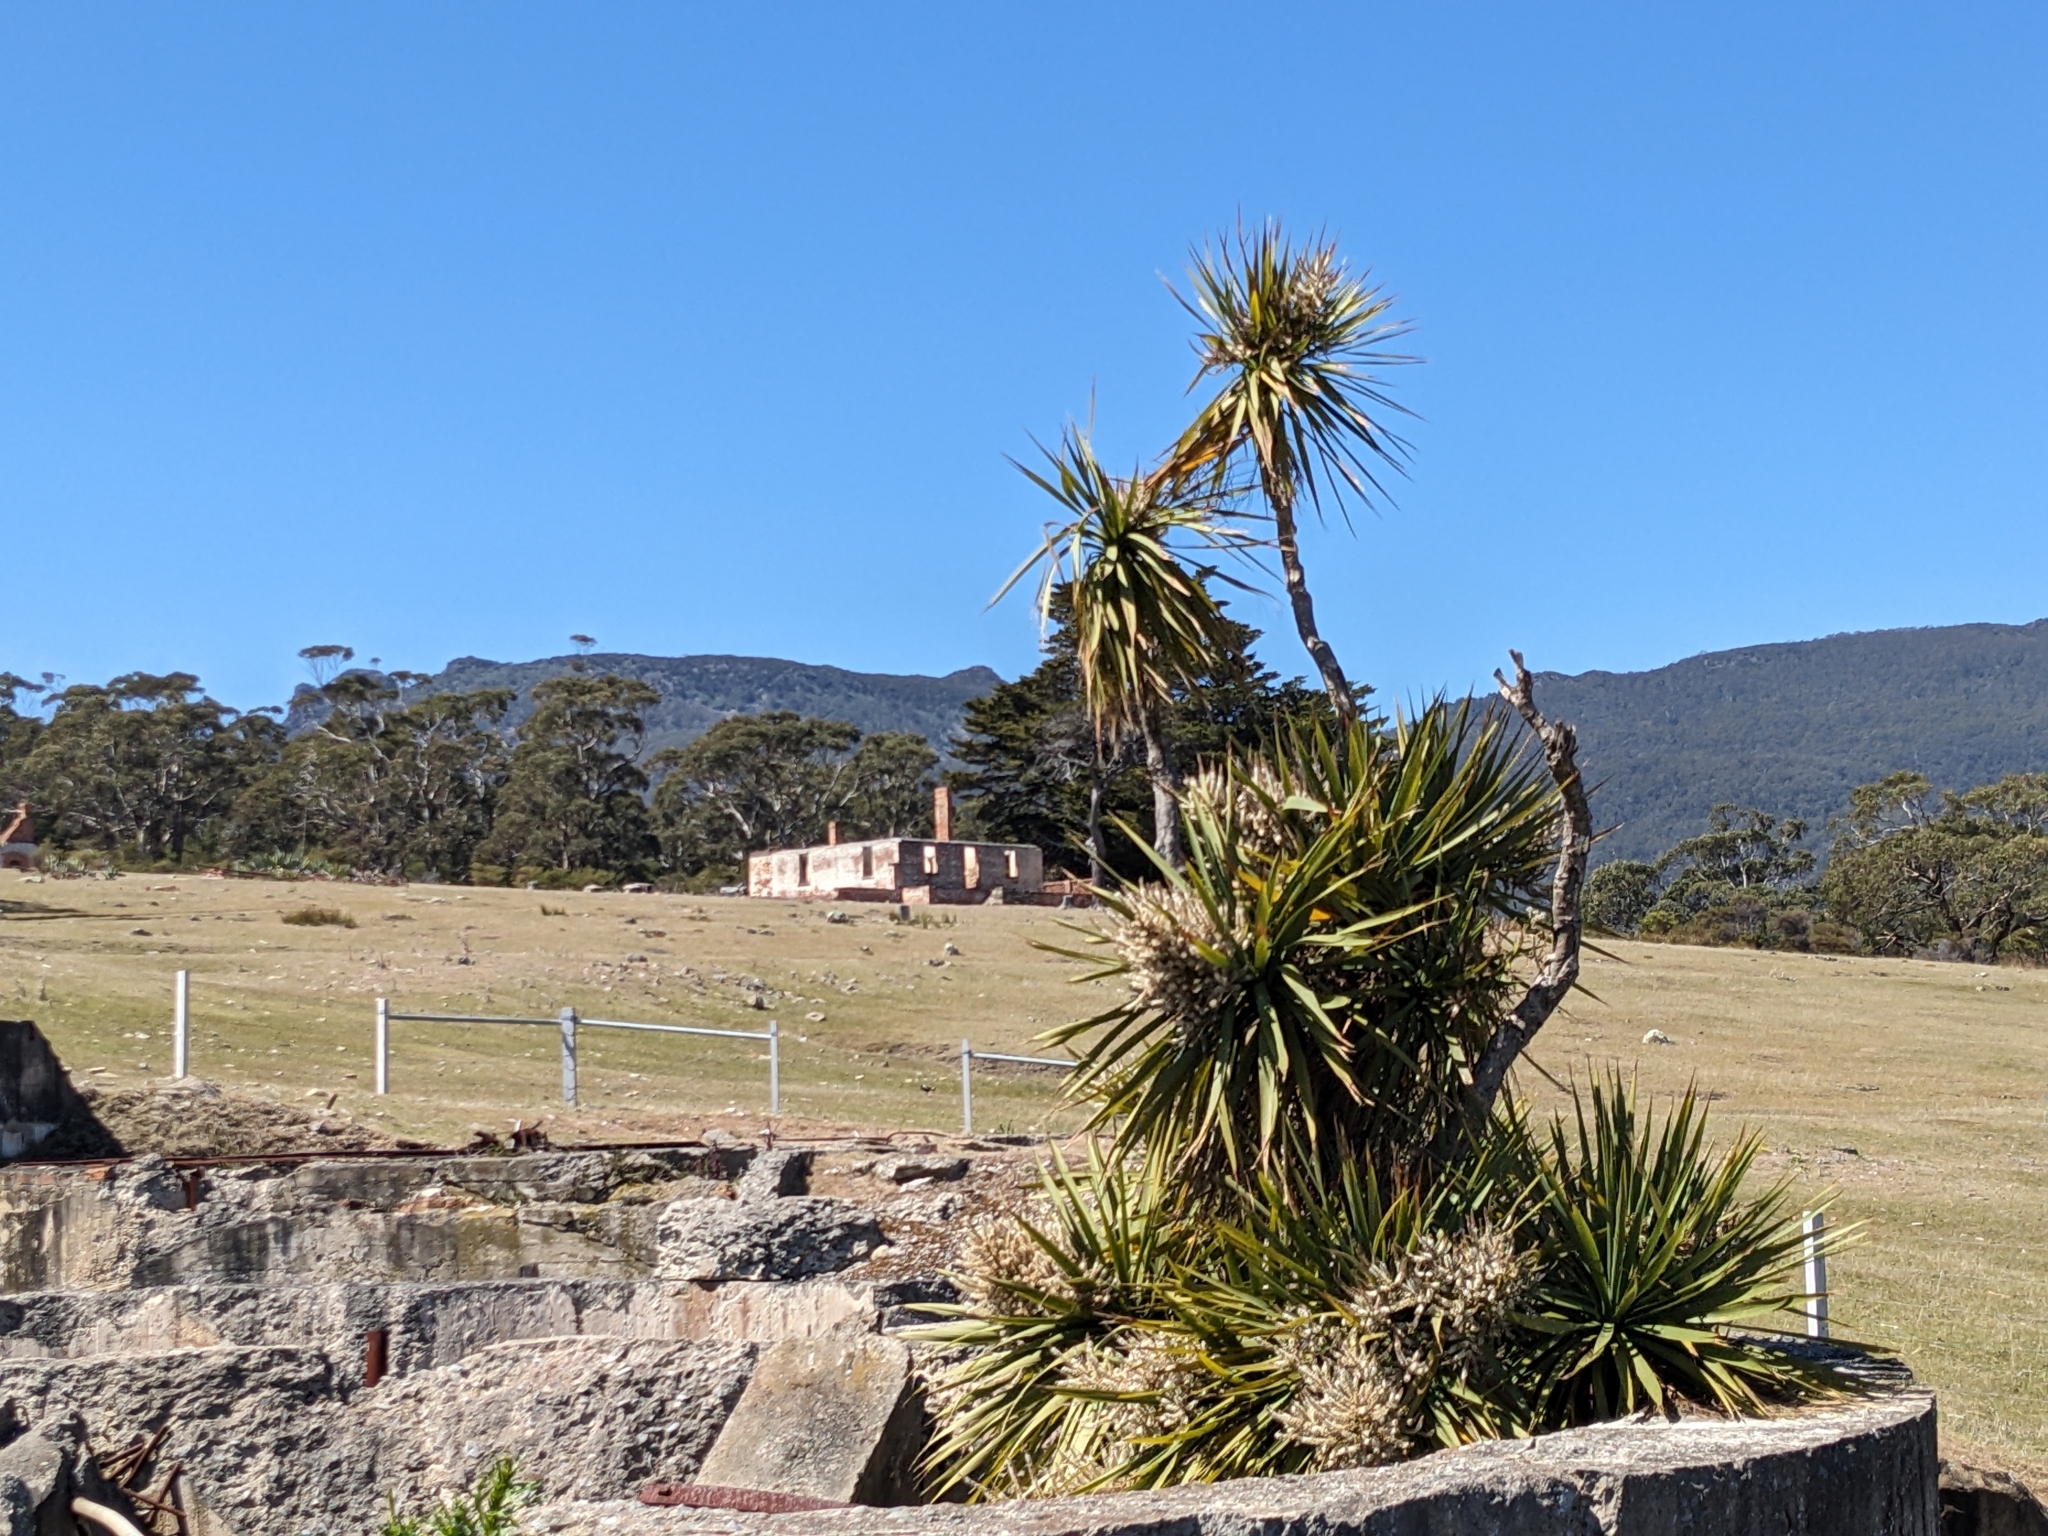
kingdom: Plantae
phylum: Tracheophyta
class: Liliopsida
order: Asparagales
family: Asparagaceae
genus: Cordyline
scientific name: Cordyline australis
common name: Cabbage-palm
